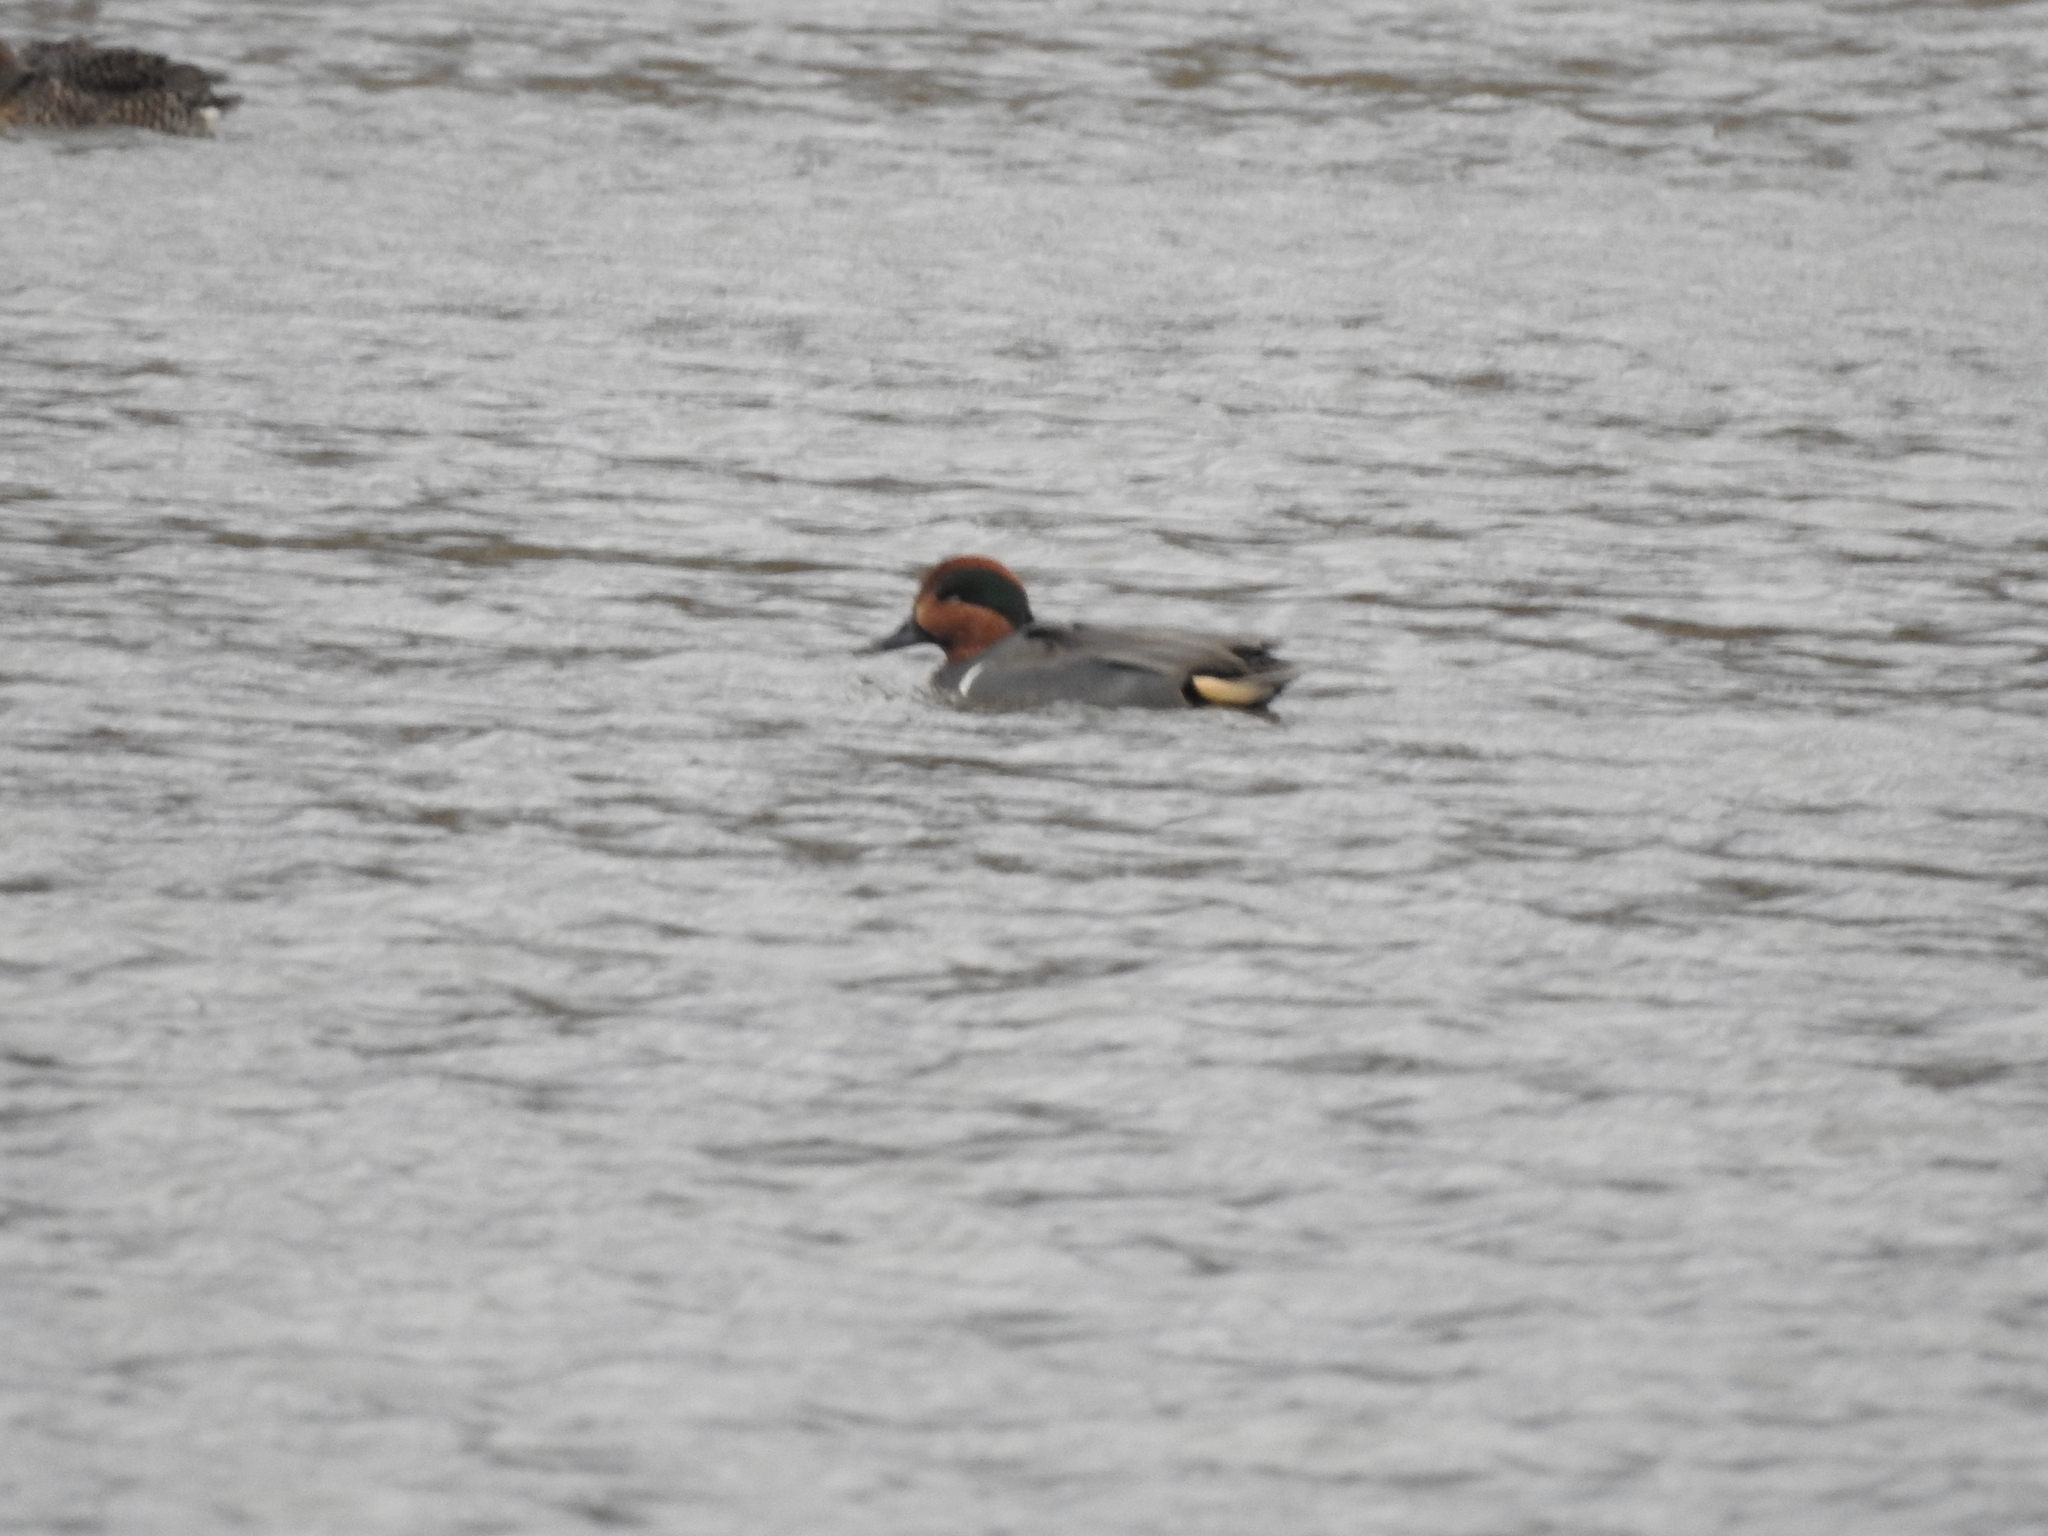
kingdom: Animalia
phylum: Chordata
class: Aves
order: Anseriformes
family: Anatidae
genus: Anas
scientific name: Anas crecca
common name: Eurasian teal
